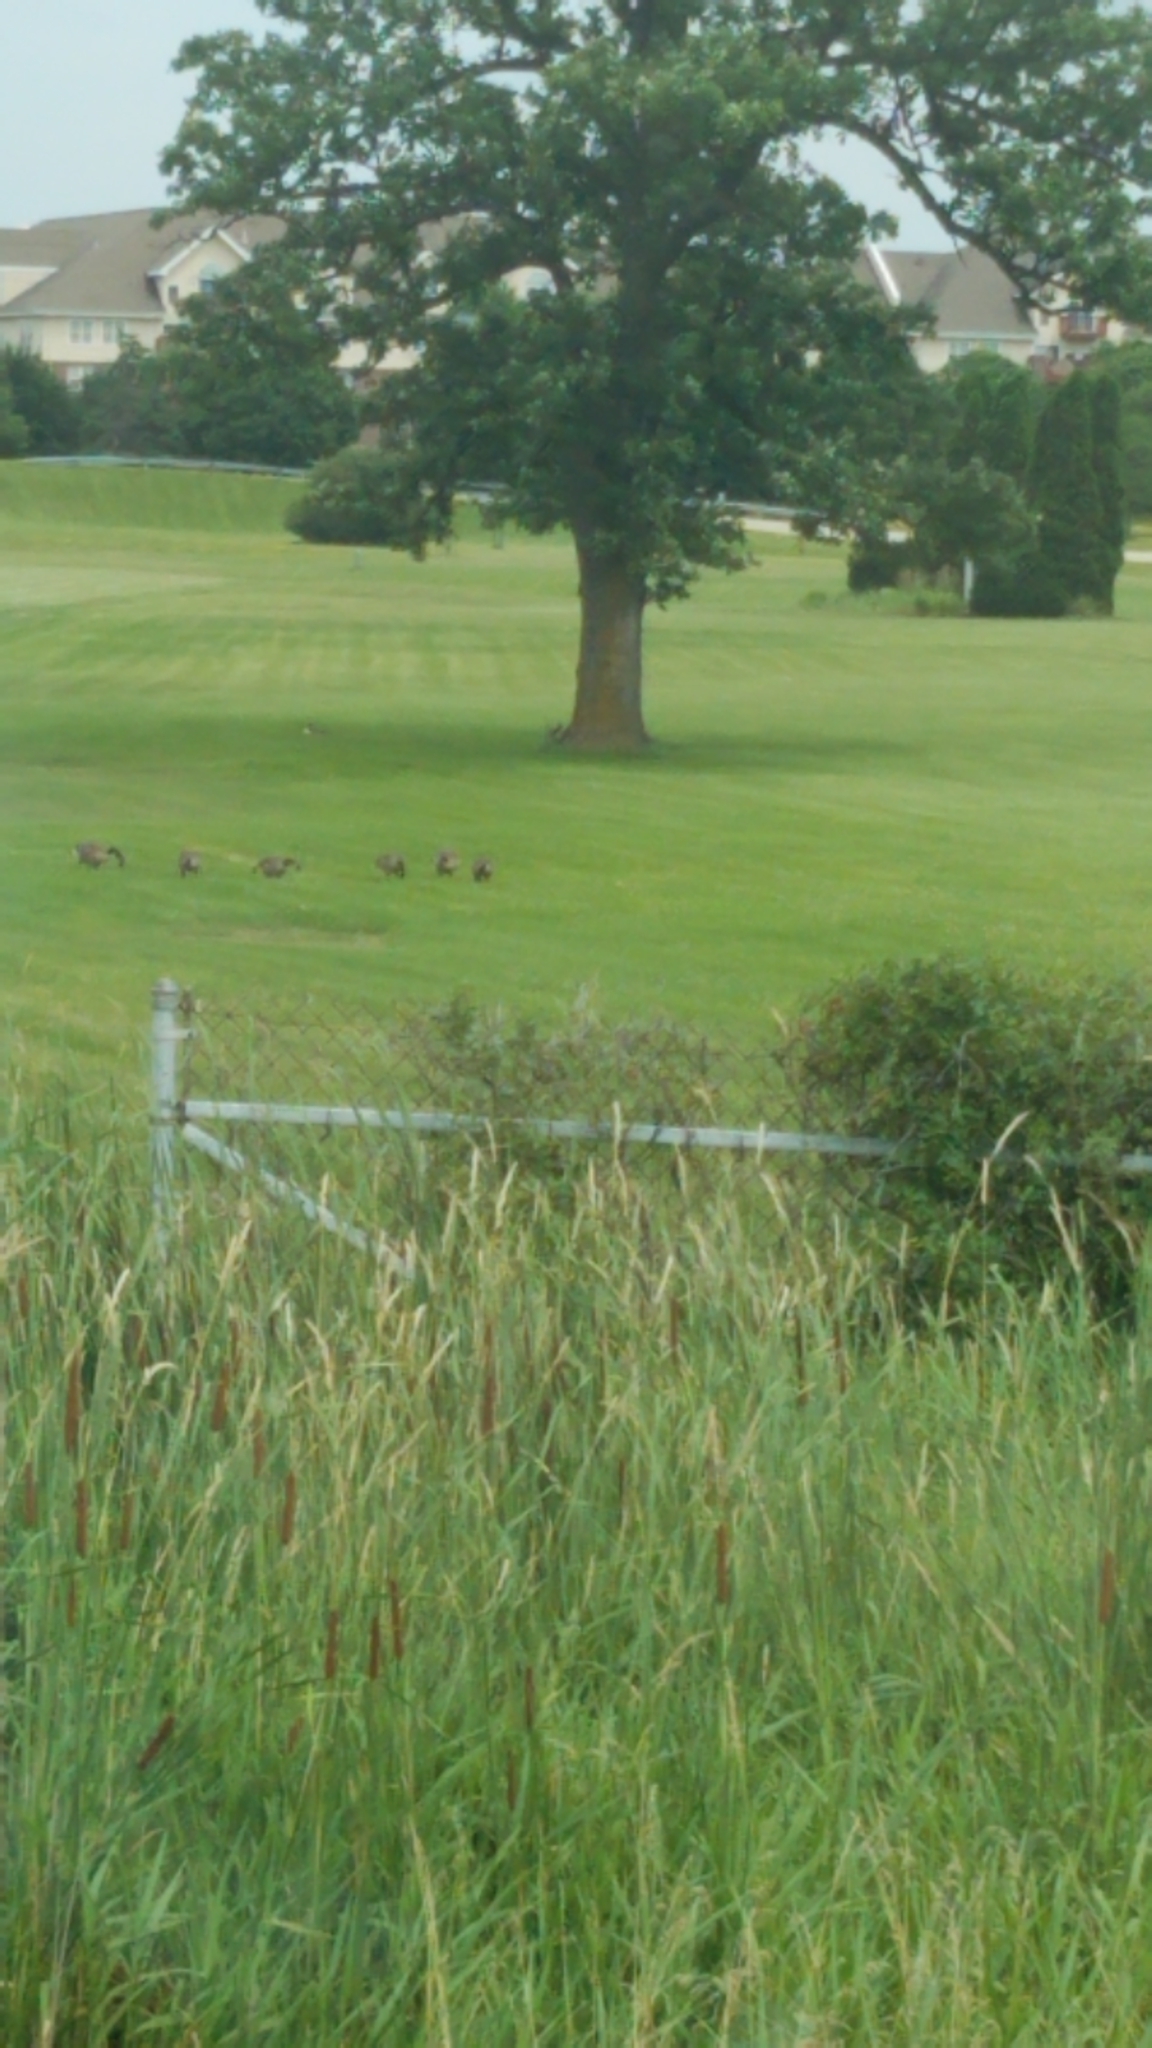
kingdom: Animalia
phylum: Chordata
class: Aves
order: Anseriformes
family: Anatidae
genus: Branta
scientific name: Branta canadensis
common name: Canada goose
